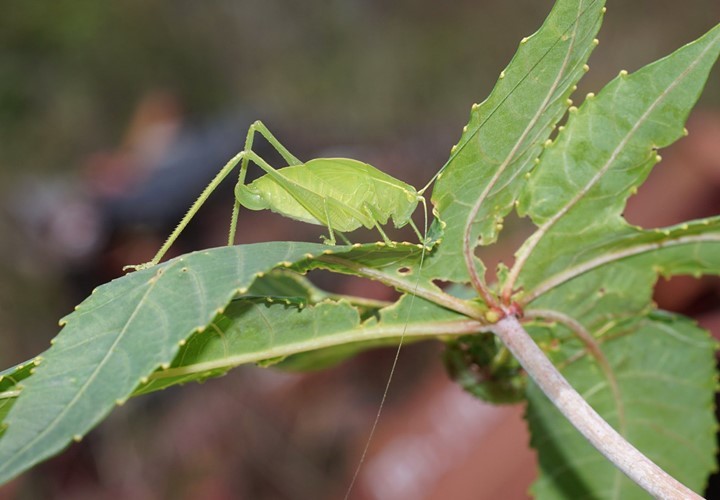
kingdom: Animalia
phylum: Arthropoda
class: Insecta
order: Orthoptera
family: Tettigoniidae
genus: Turpilia
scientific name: Turpilia rostrata
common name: Narrow-beaked katydid
